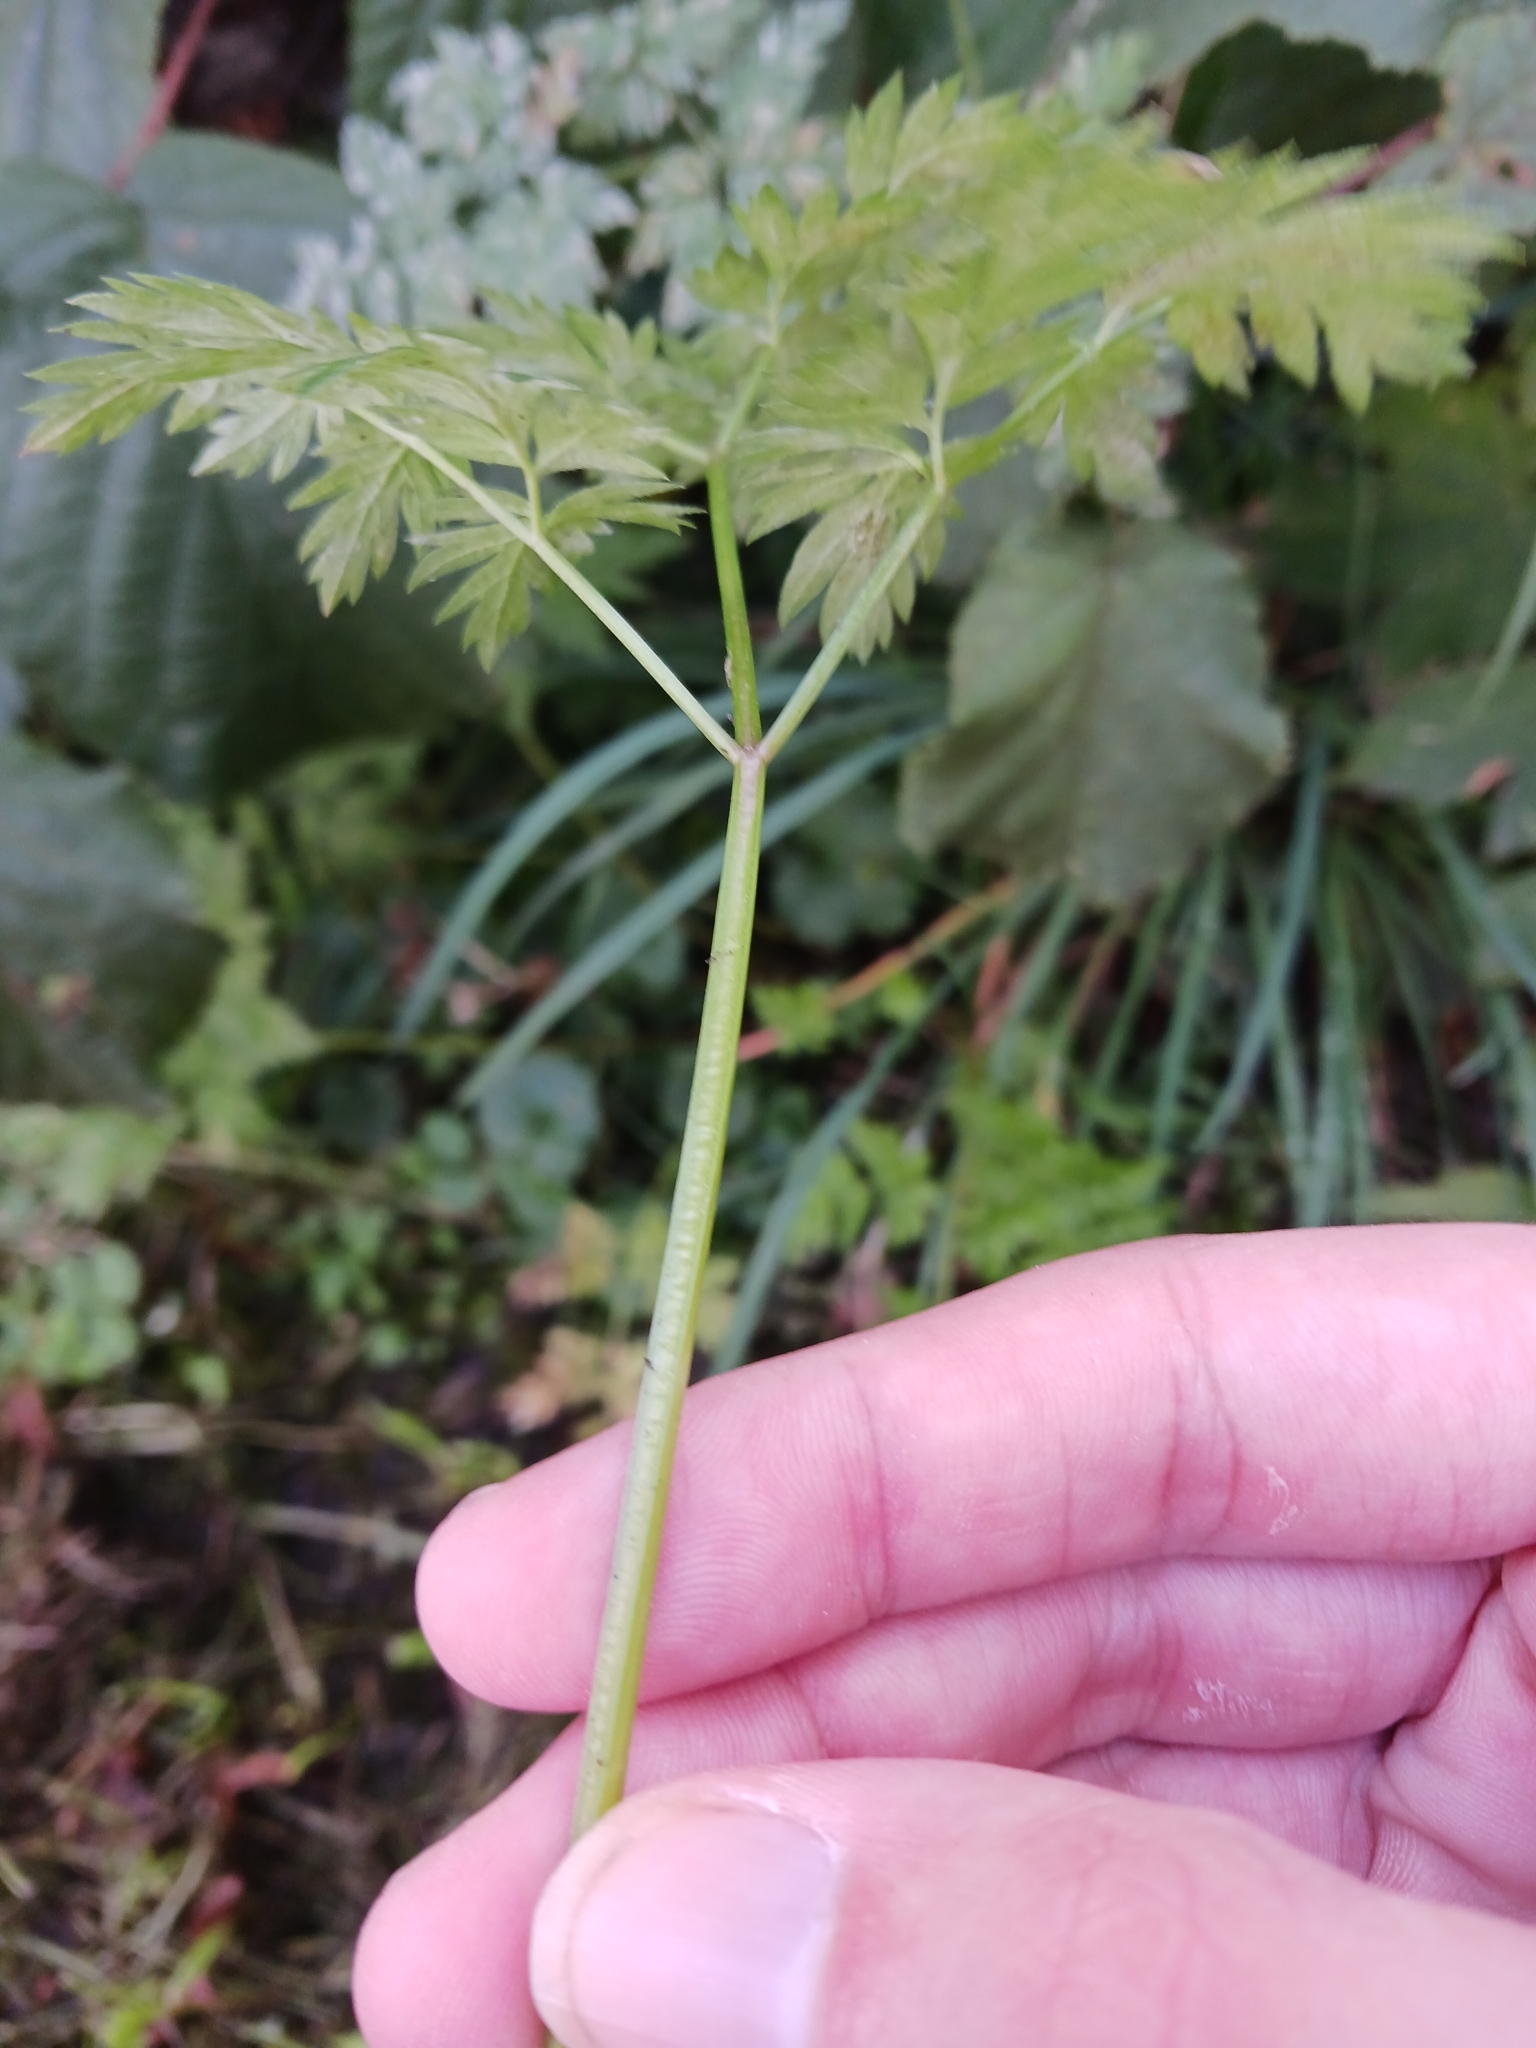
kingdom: Plantae
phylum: Tracheophyta
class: Magnoliopsida
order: Apiales
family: Apiaceae
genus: Anthriscus
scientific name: Anthriscus sylvestris
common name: Cow parsley
